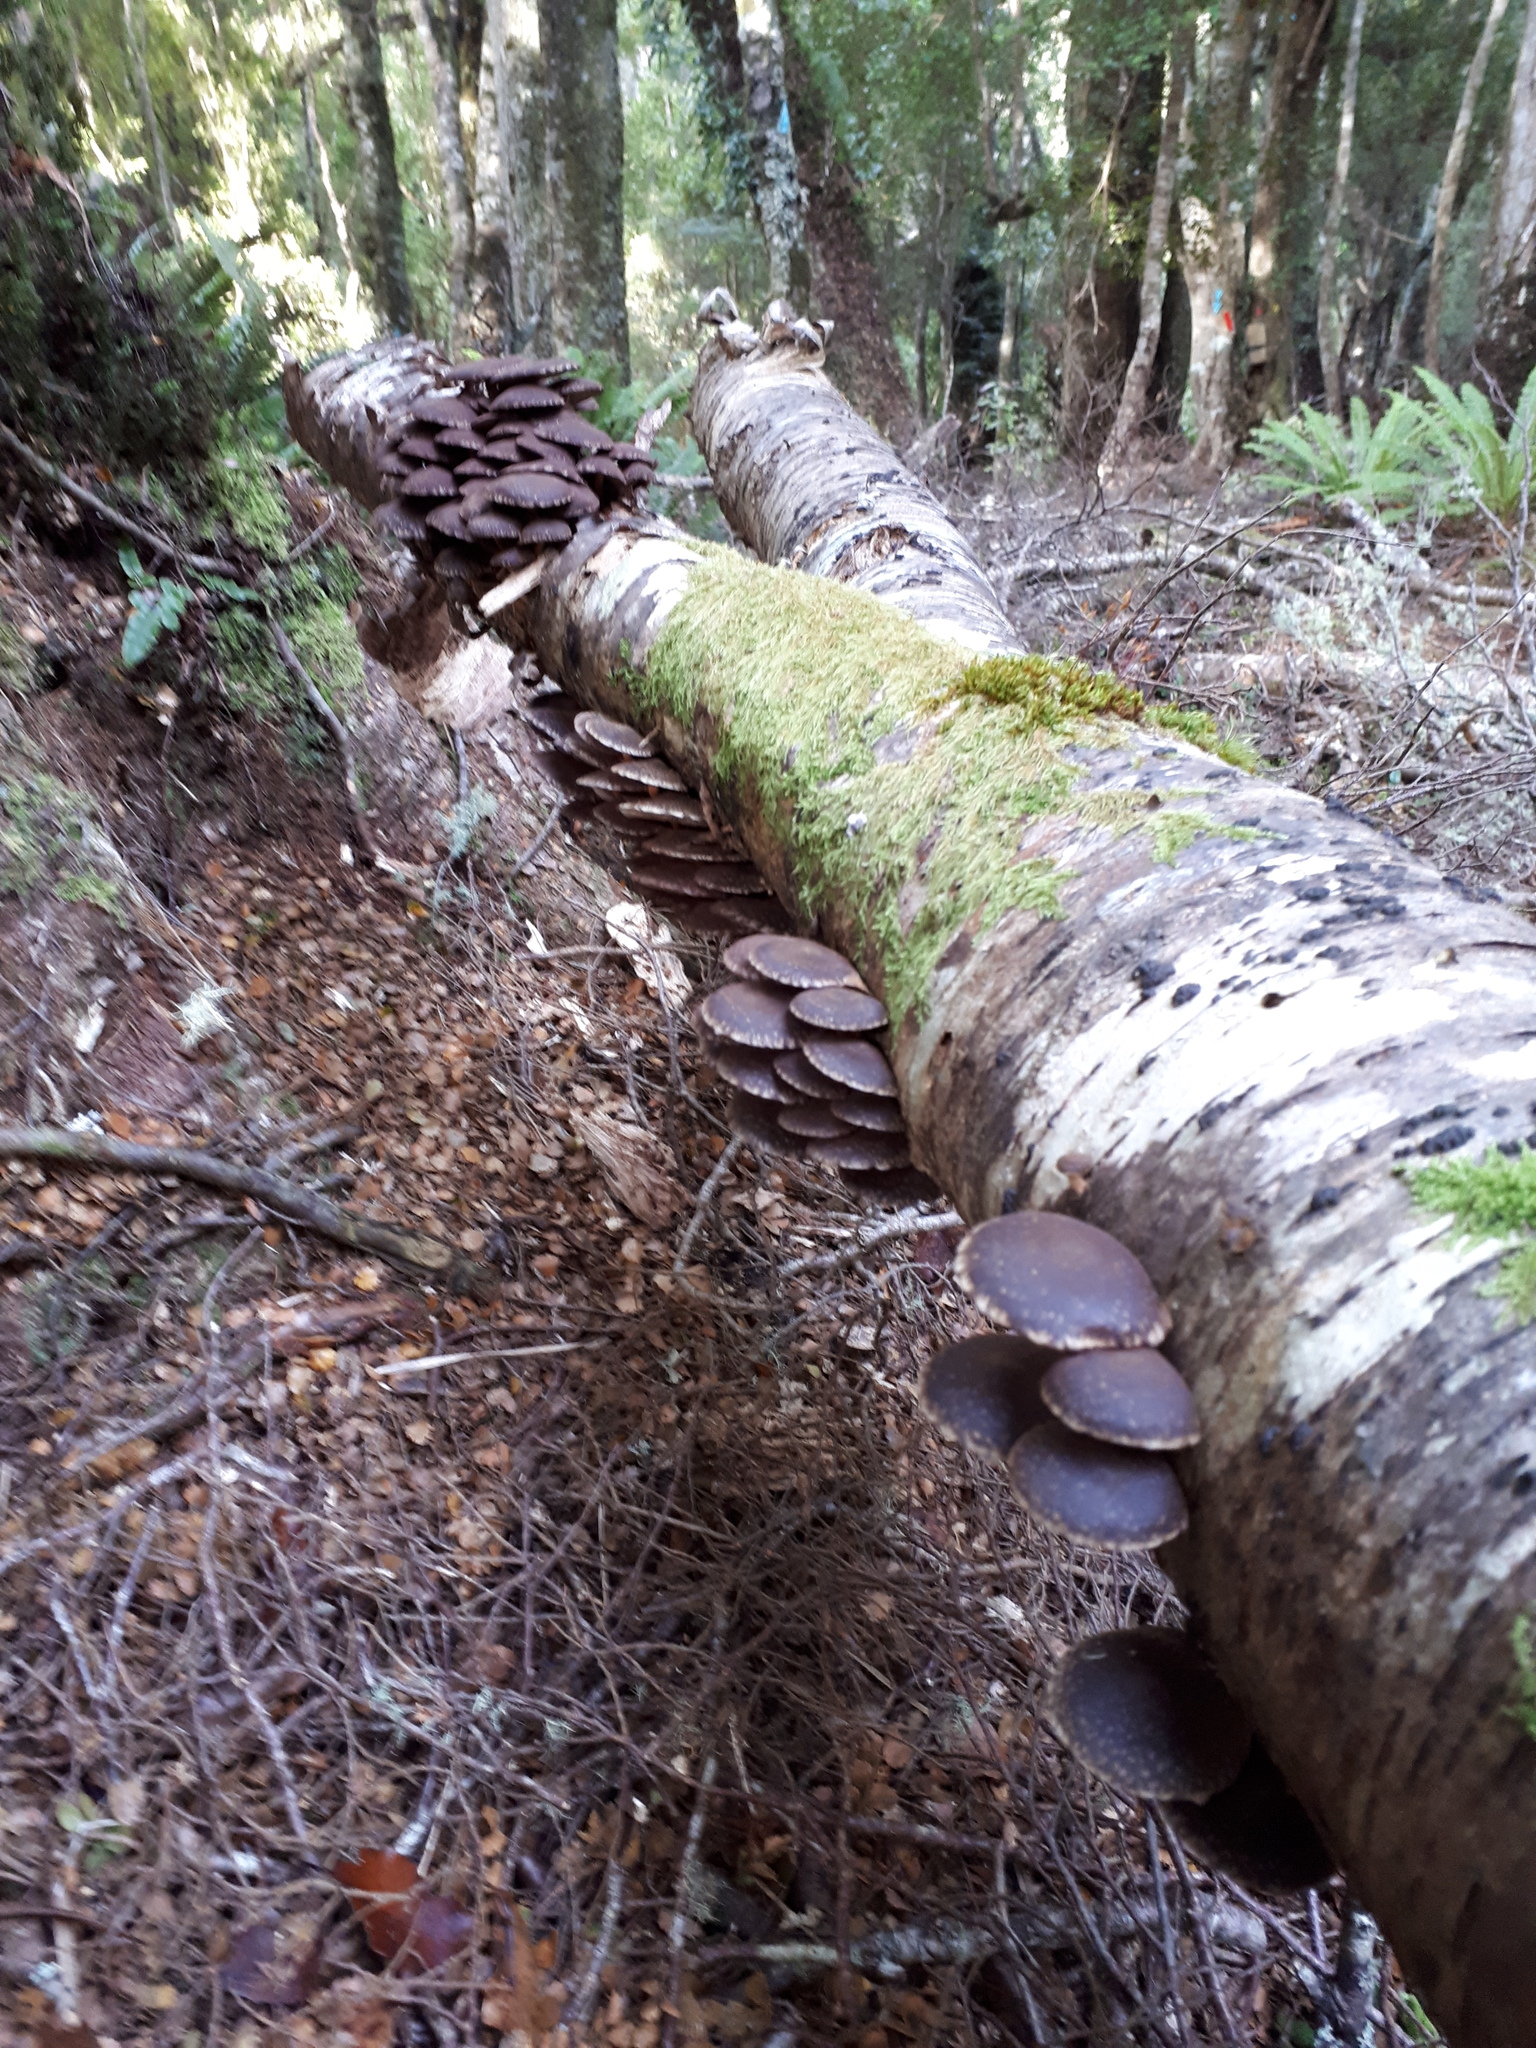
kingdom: Fungi
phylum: Basidiomycota
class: Agaricomycetes
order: Agaricales
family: Strophariaceae
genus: Hypholoma
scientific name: Hypholoma brunneum
